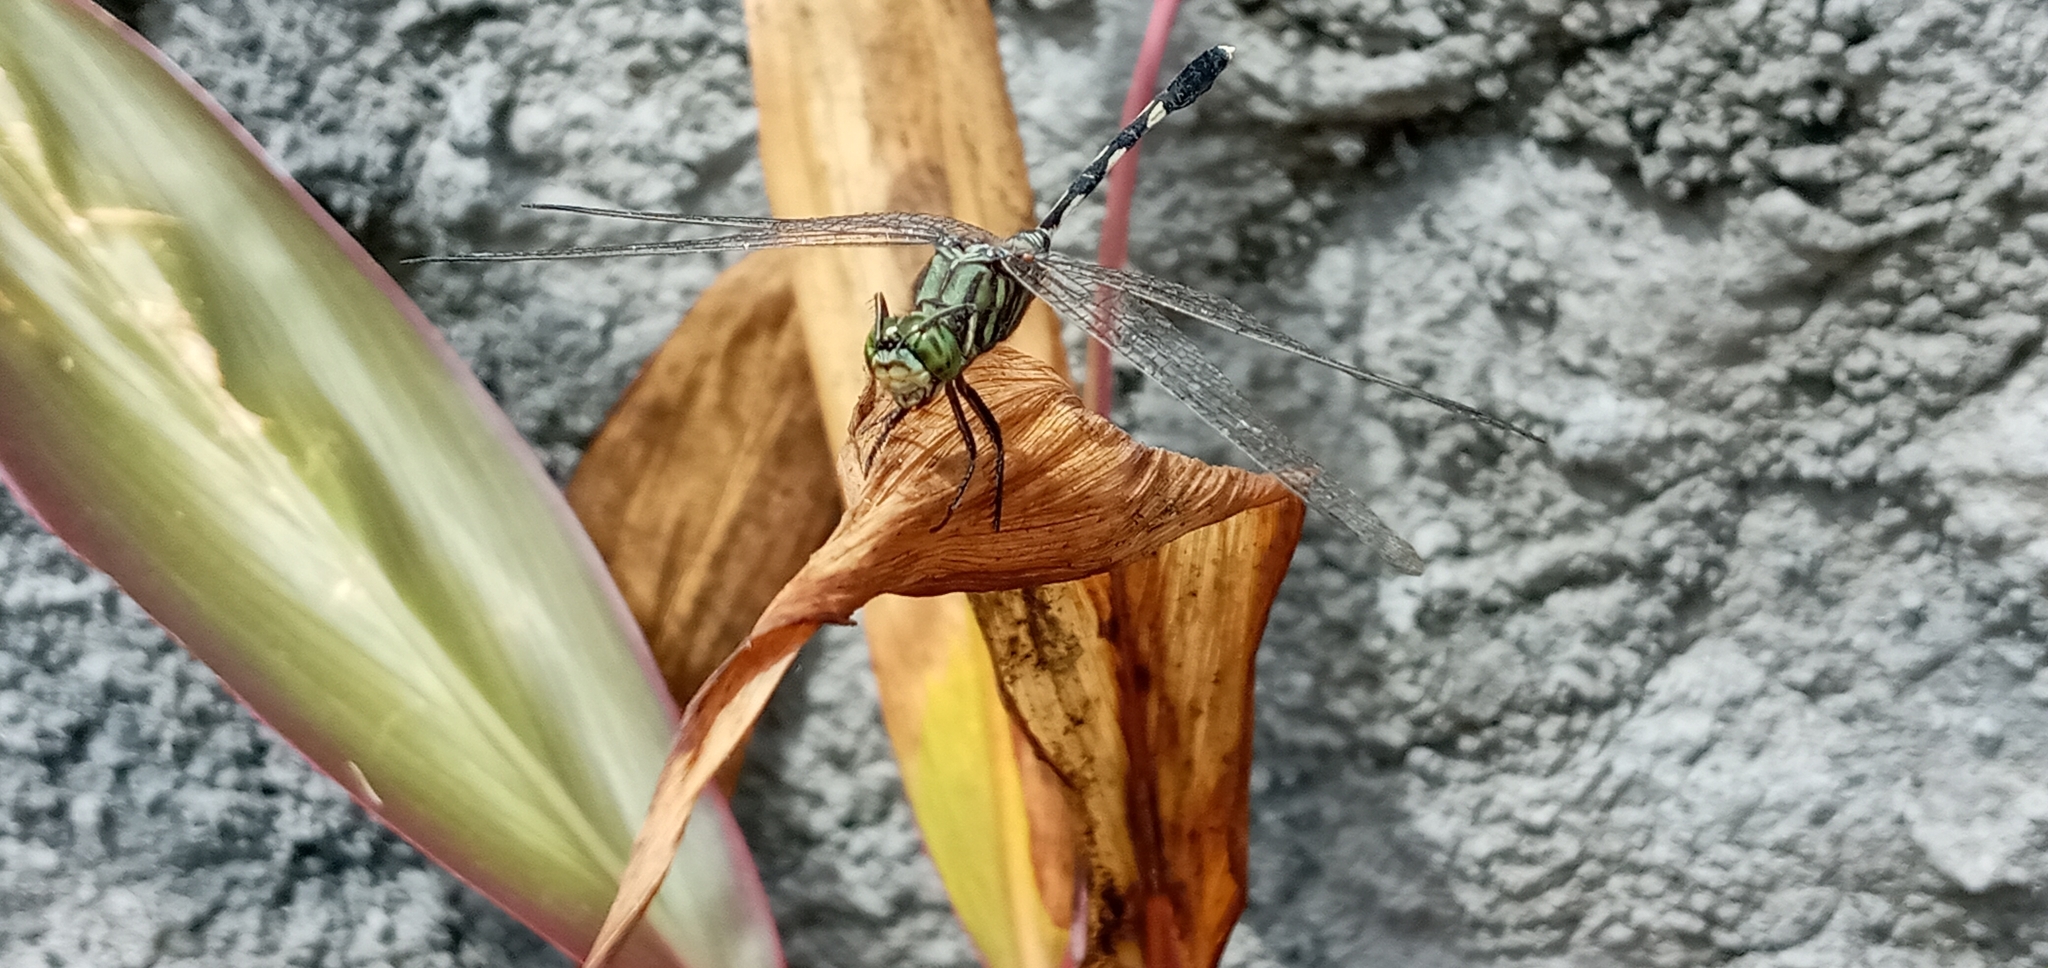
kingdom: Animalia
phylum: Arthropoda
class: Insecta
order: Odonata
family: Libellulidae
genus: Orthetrum
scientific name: Orthetrum sabina
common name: Slender skimmer
